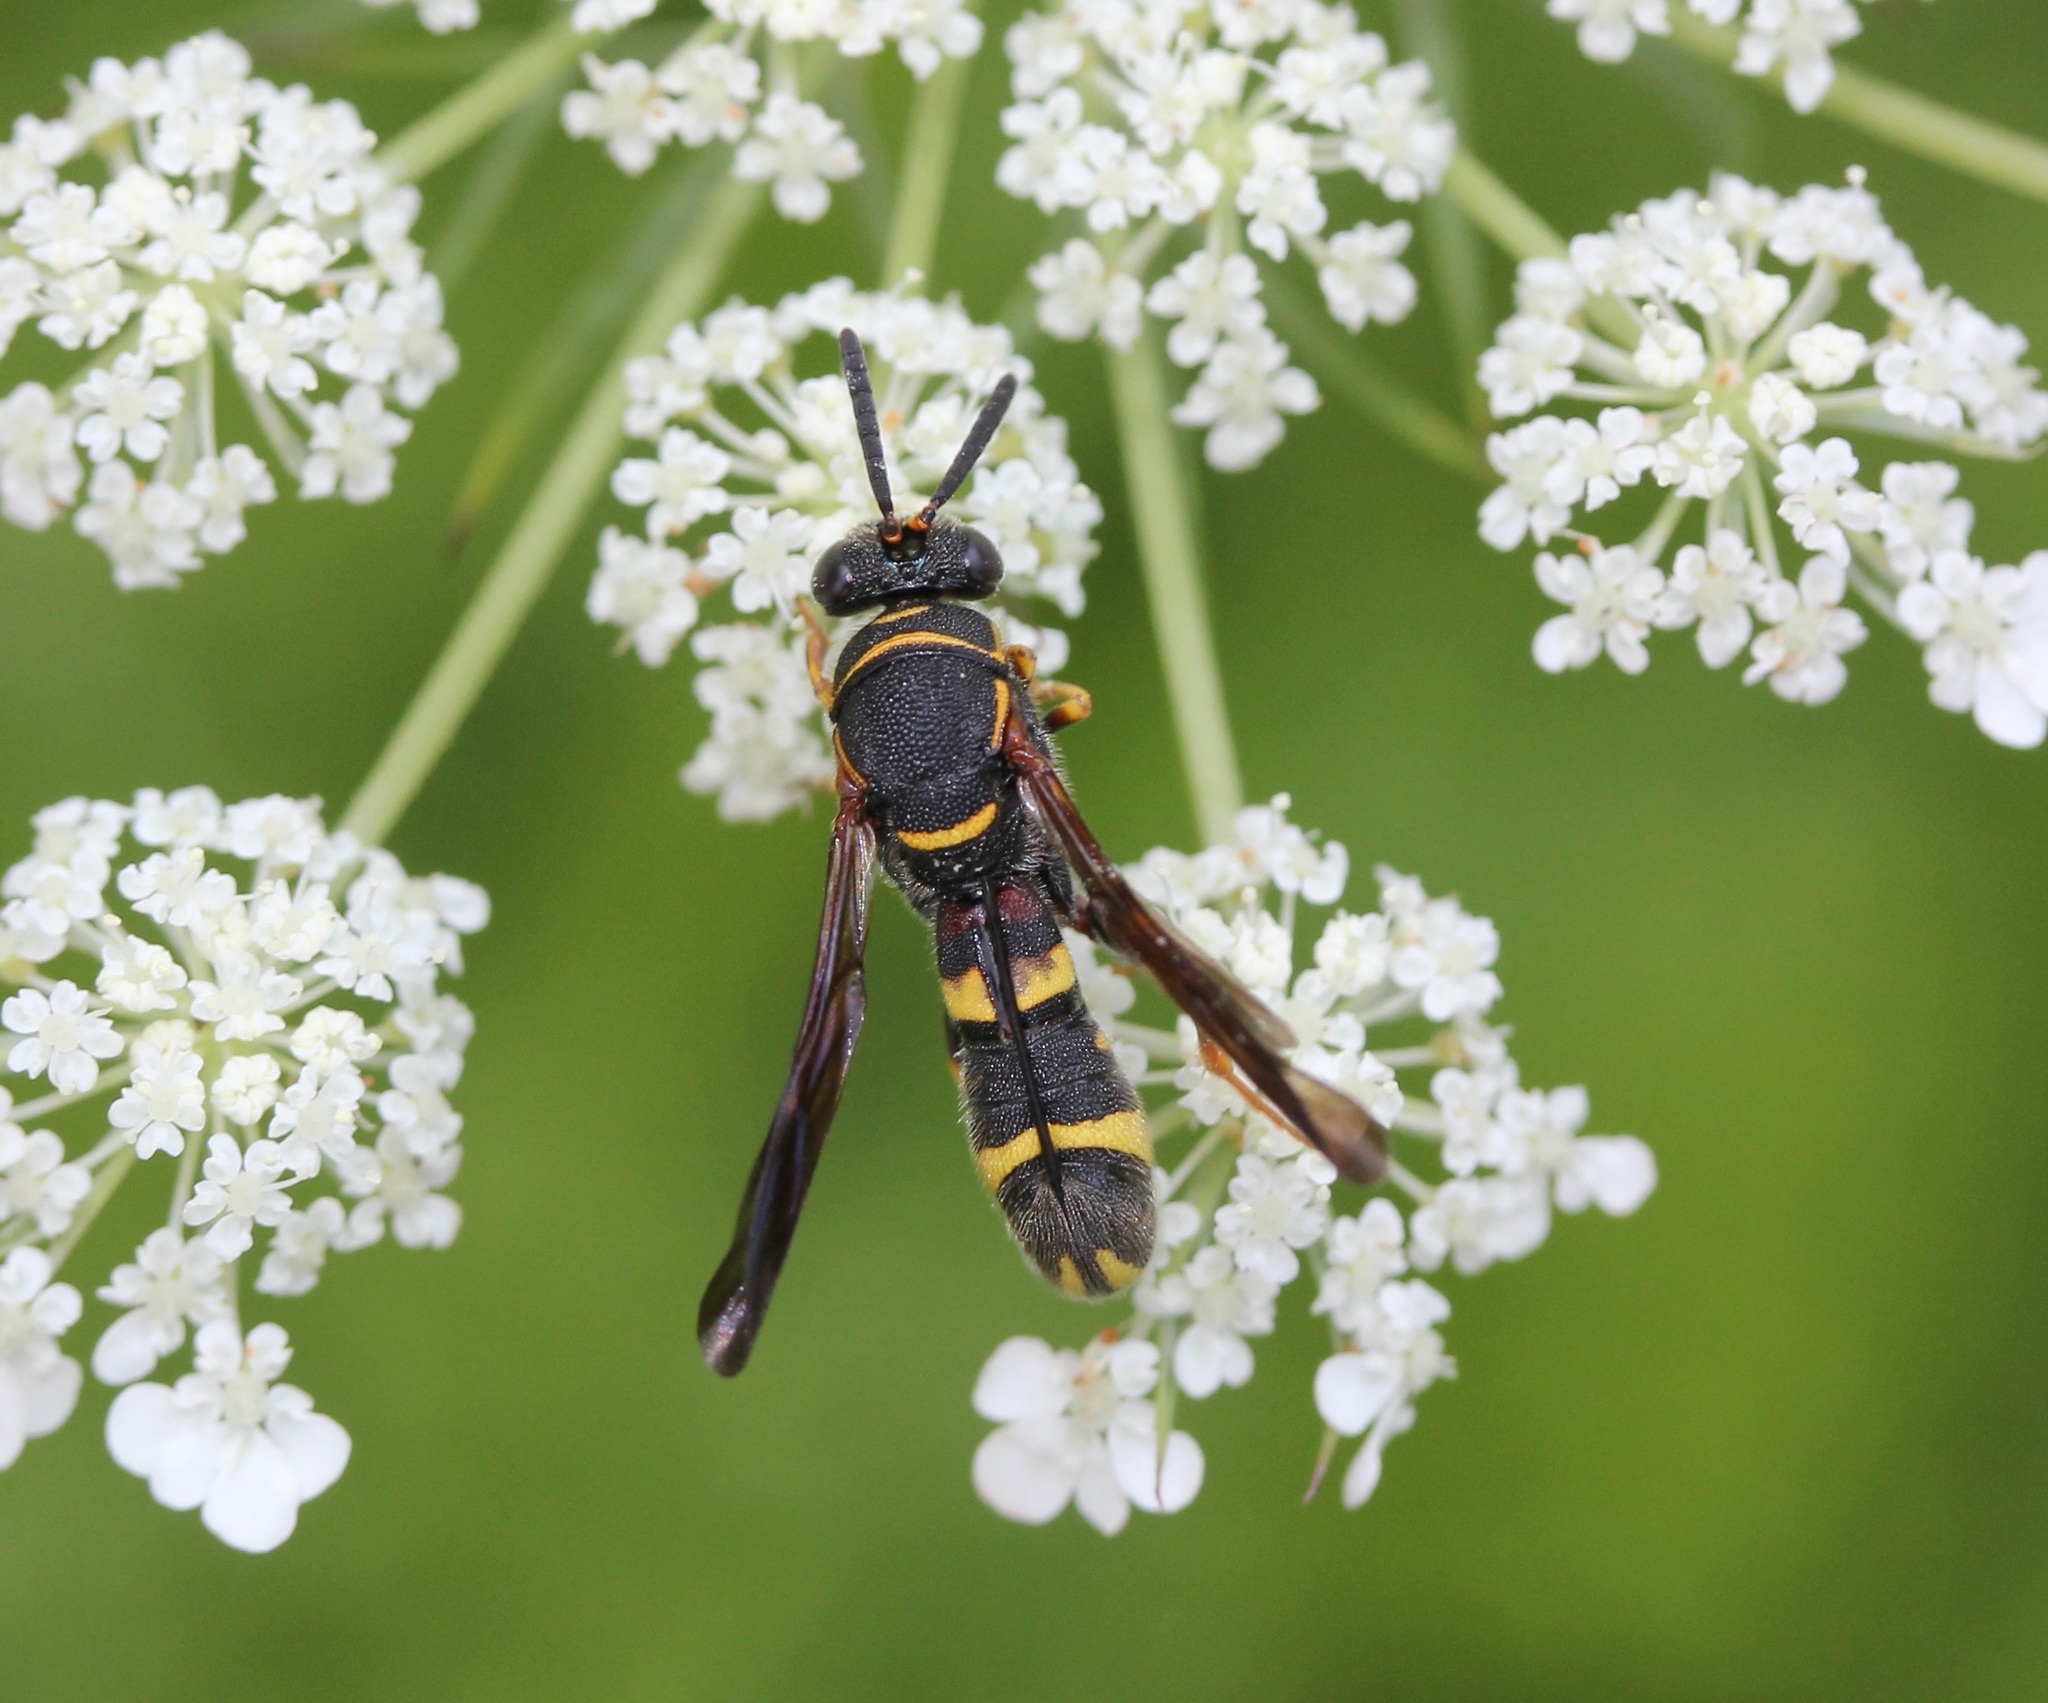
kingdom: Animalia
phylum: Arthropoda
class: Insecta
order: Hymenoptera
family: Leucospidae
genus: Leucospis
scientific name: Leucospis affinis
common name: Wasp
